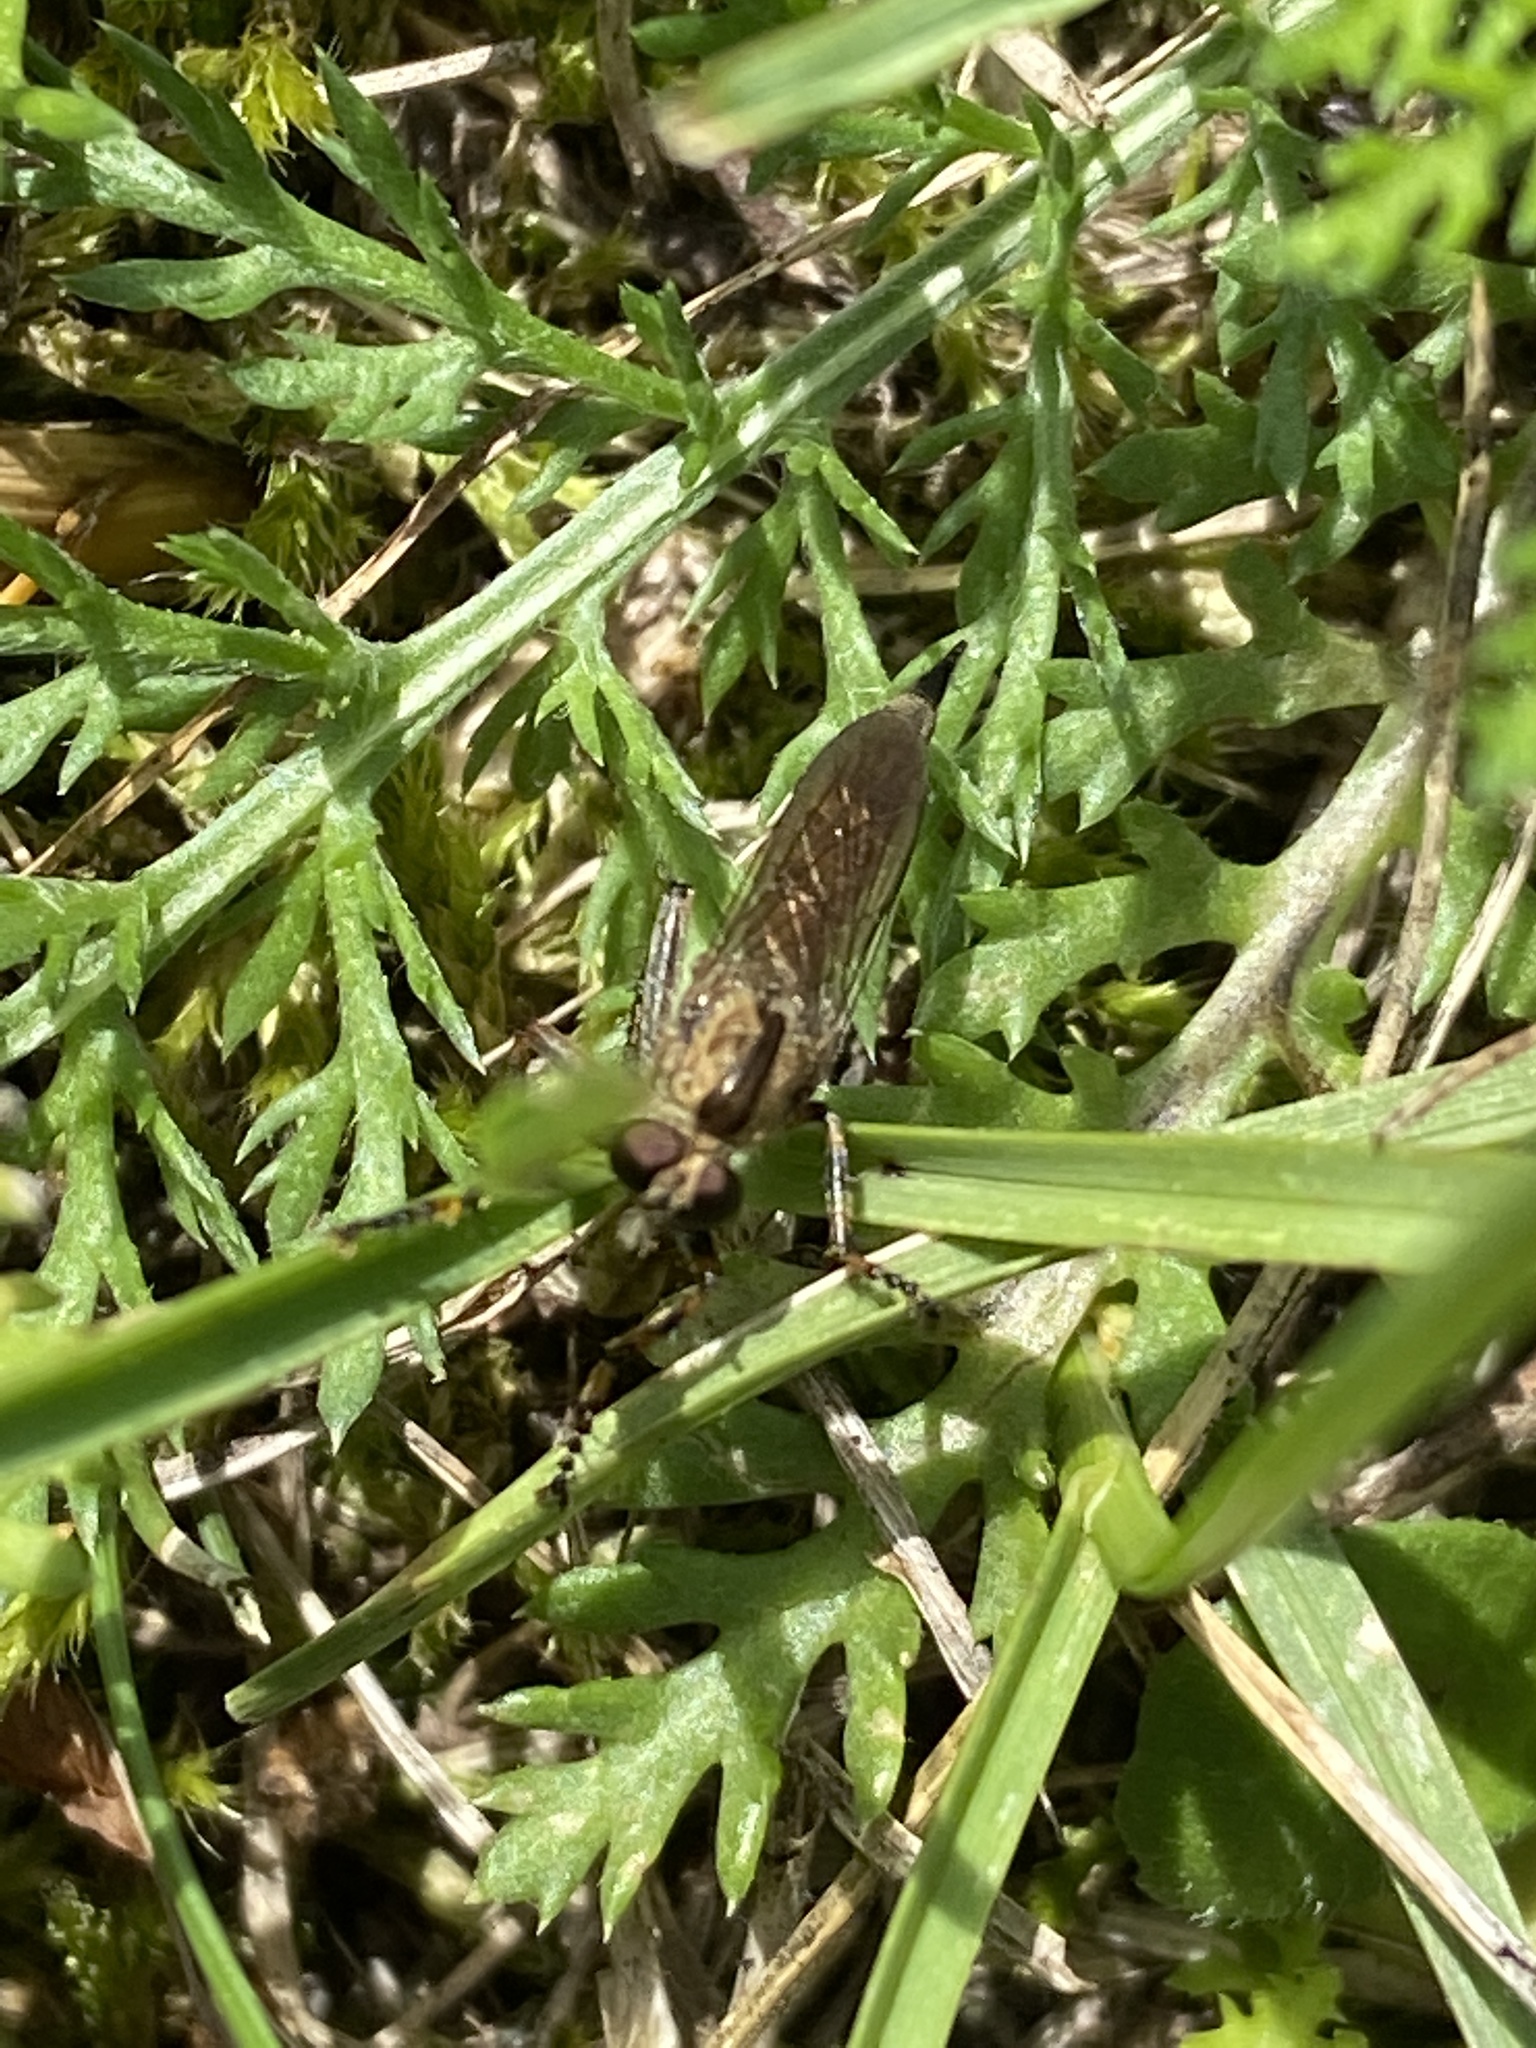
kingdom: Animalia
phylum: Arthropoda
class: Insecta
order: Diptera
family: Asilidae
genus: Epitriptus
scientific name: Epitriptus cingulatus
